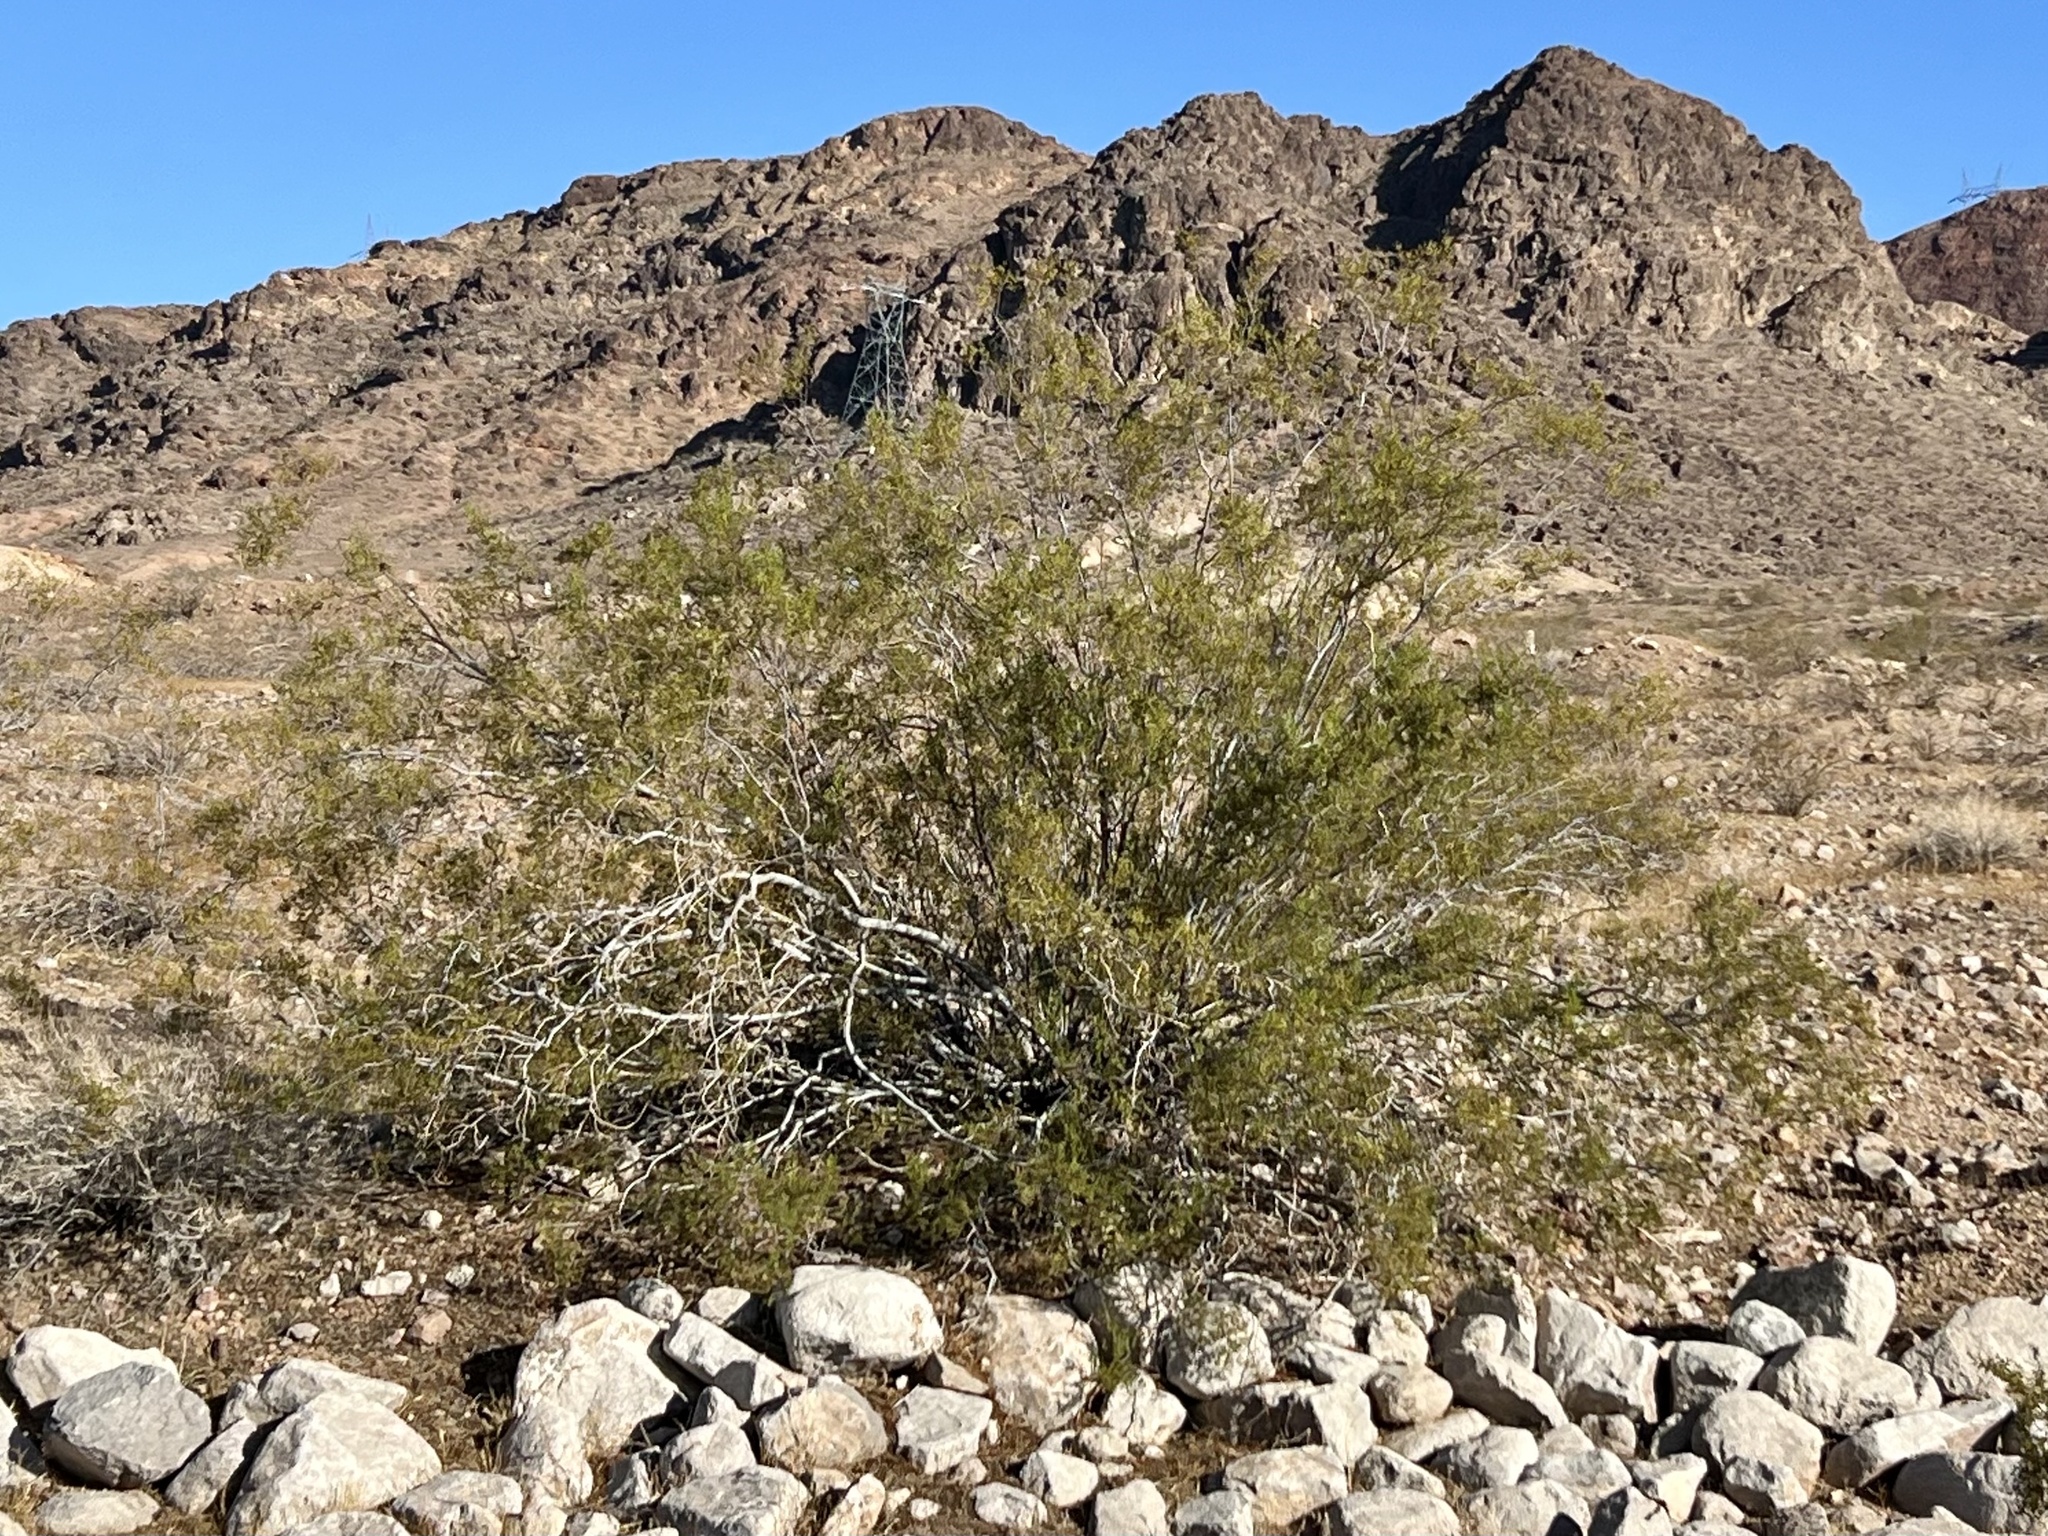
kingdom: Plantae
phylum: Tracheophyta
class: Magnoliopsida
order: Zygophyllales
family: Zygophyllaceae
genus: Larrea
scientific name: Larrea tridentata
